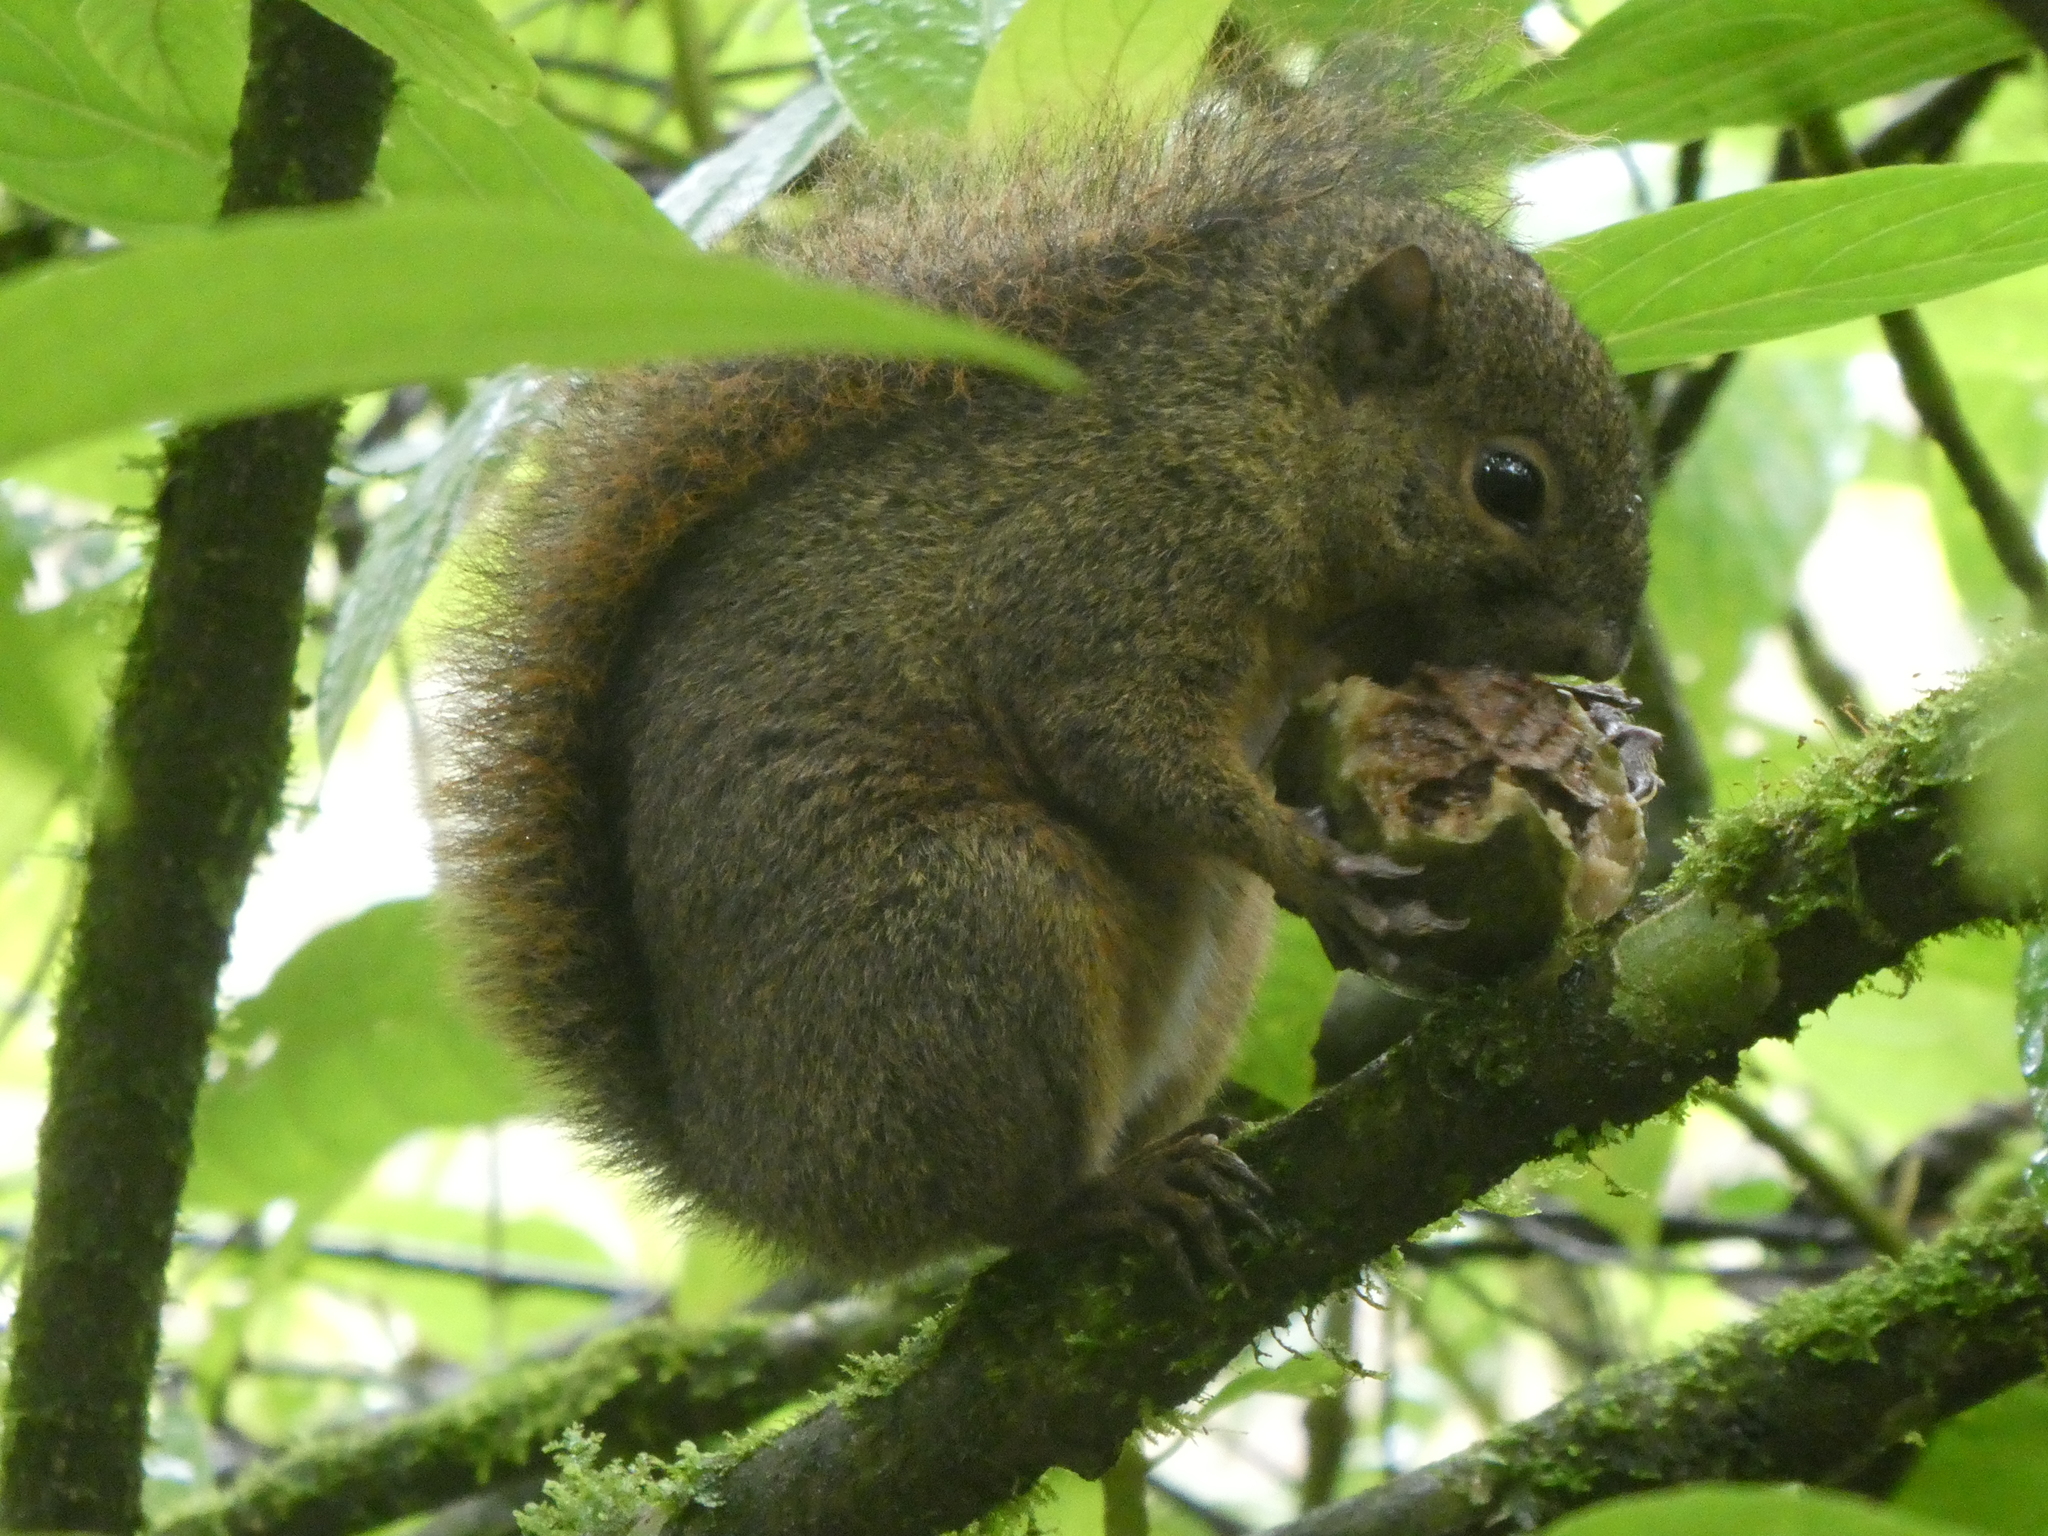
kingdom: Animalia
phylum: Chordata
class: Mammalia
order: Rodentia
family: Sciuridae
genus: Microsciurus
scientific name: Microsciurus alfari
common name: Central american dwarf squirrel
